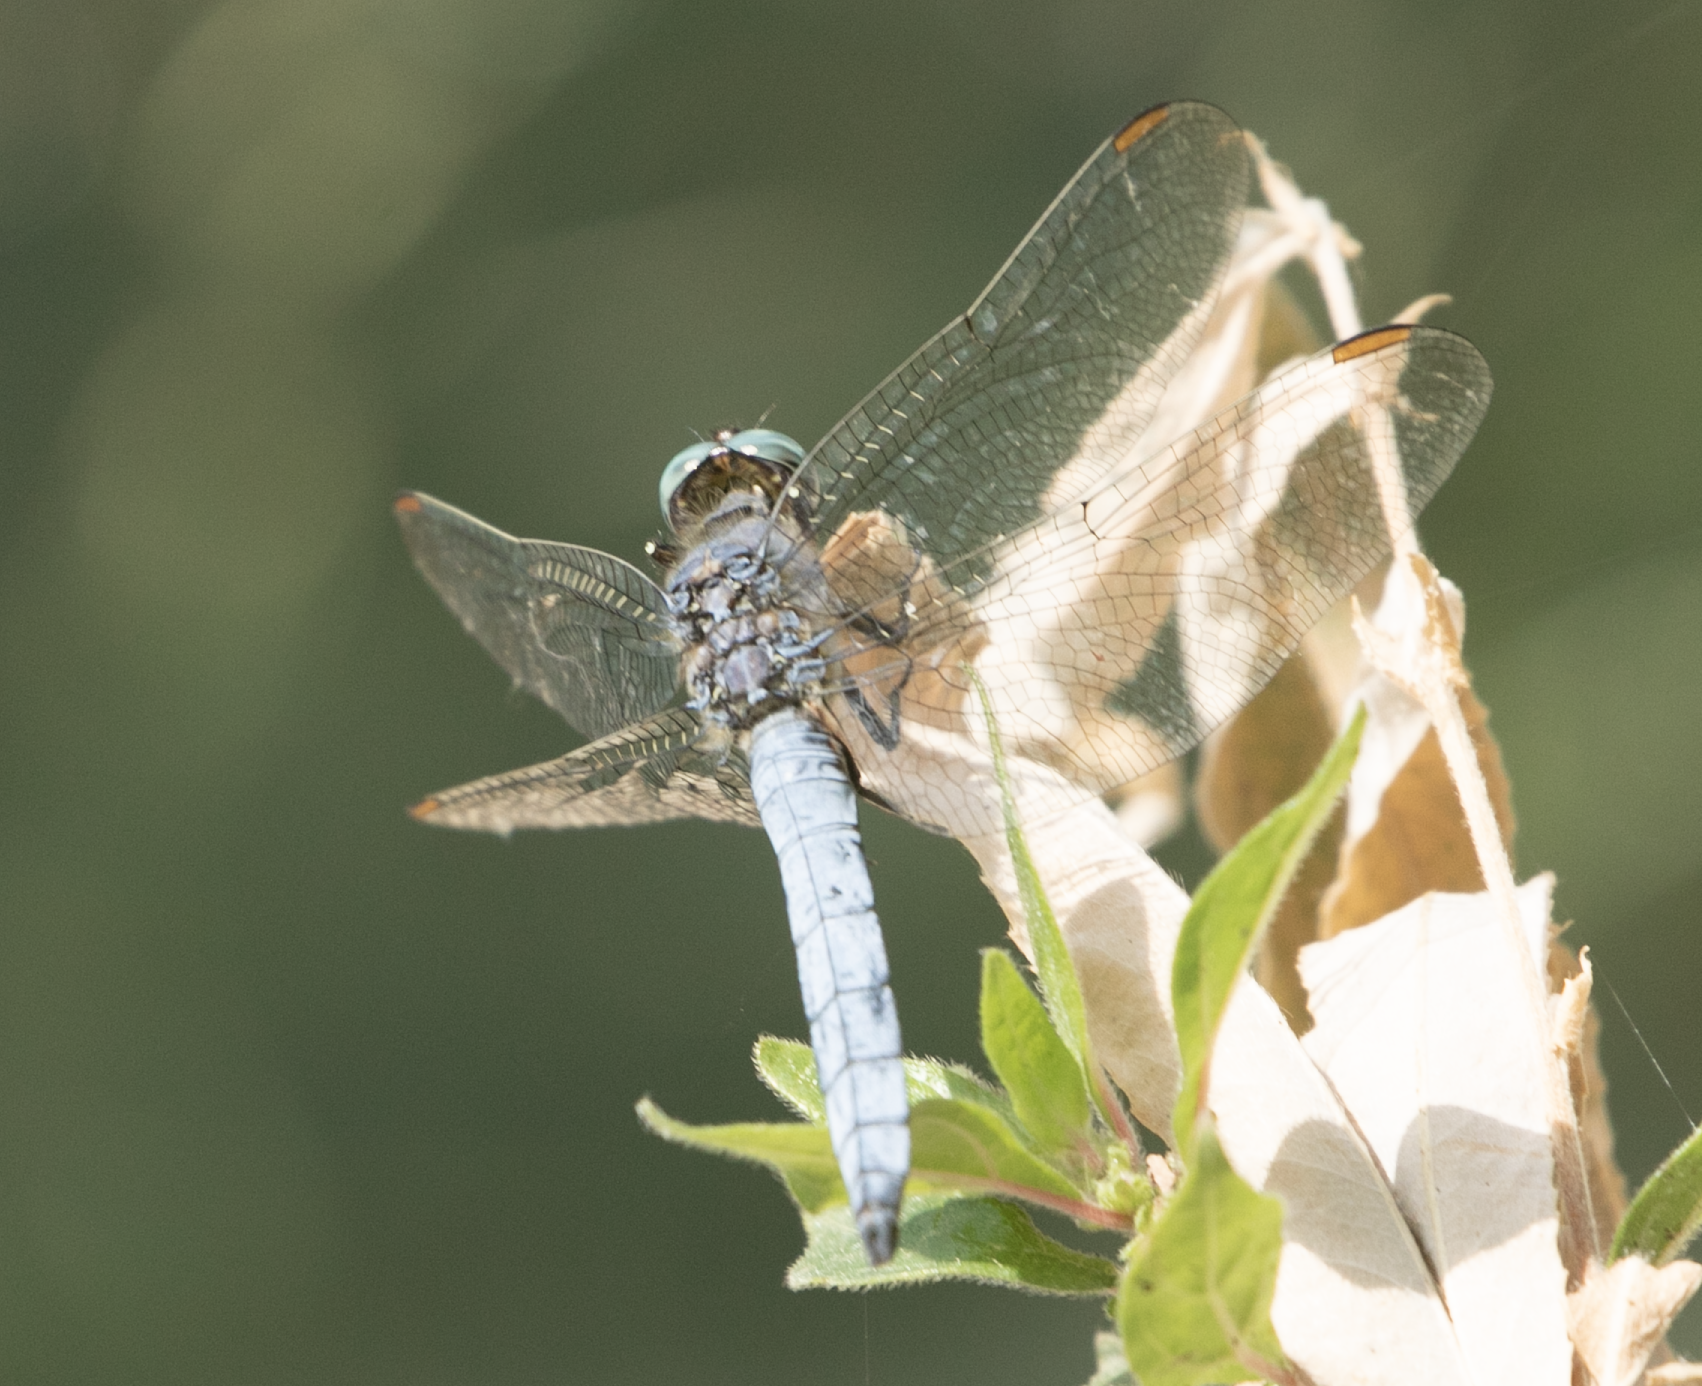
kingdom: Animalia
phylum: Arthropoda
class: Insecta
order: Odonata
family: Libellulidae
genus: Orthetrum
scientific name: Orthetrum coerulescens
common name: Keeled skimmer
